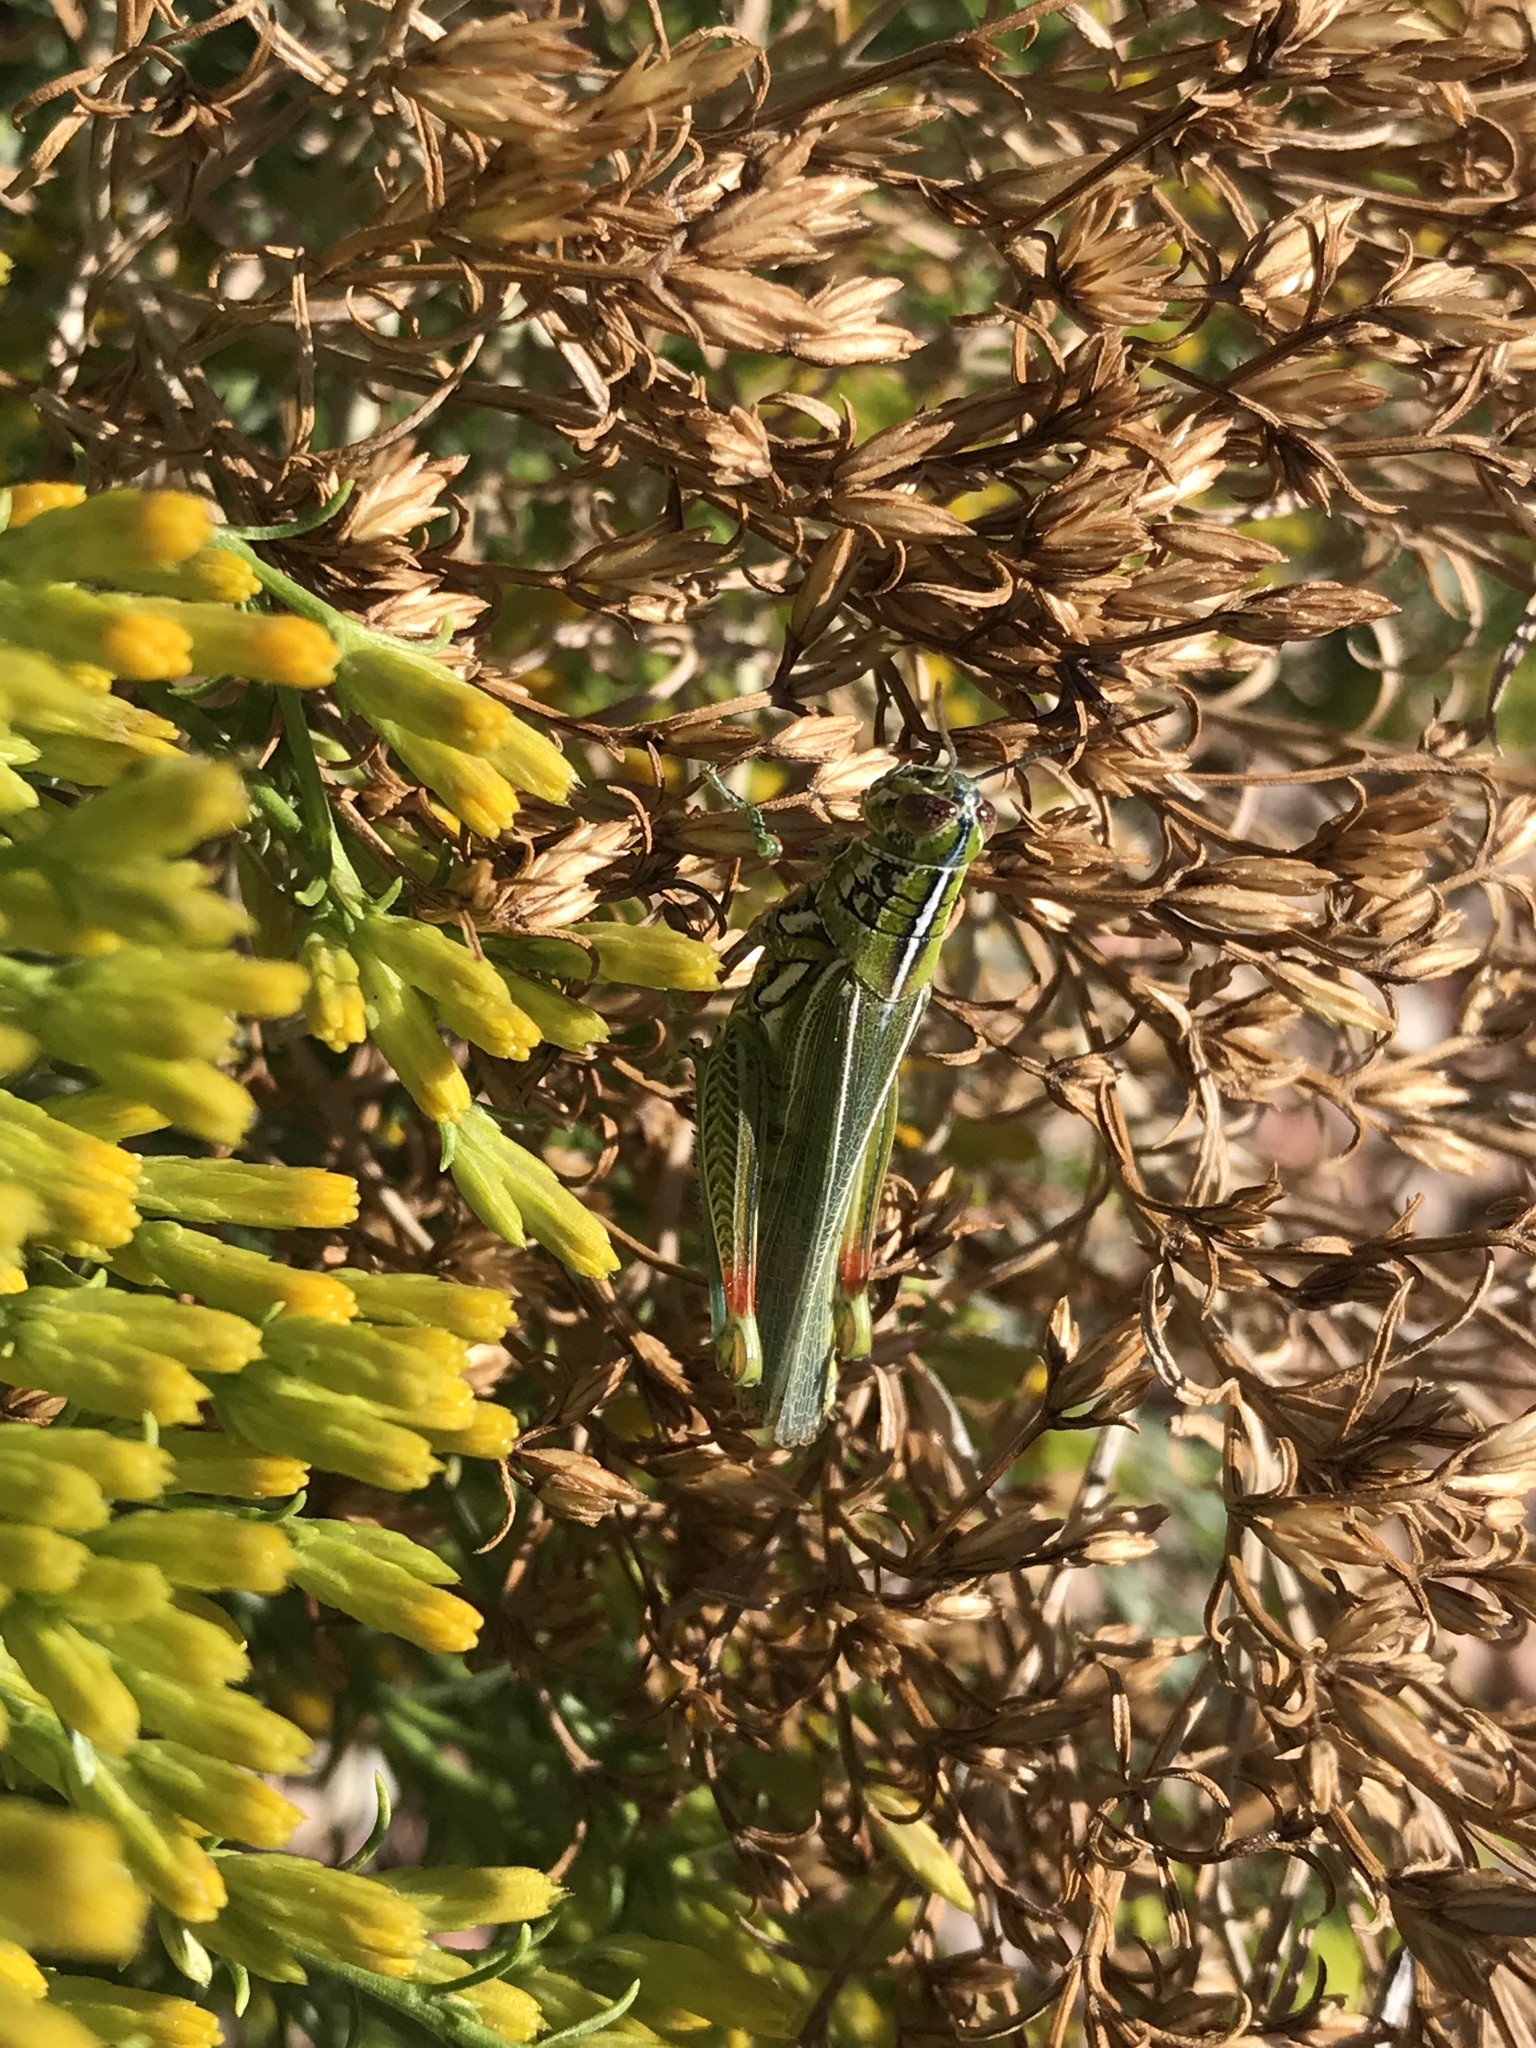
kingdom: Animalia
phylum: Arthropoda
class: Insecta
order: Orthoptera
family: Acrididae
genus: Hesperotettix
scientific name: Hesperotettix viridis
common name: Meadow purple-striped grasshopper
